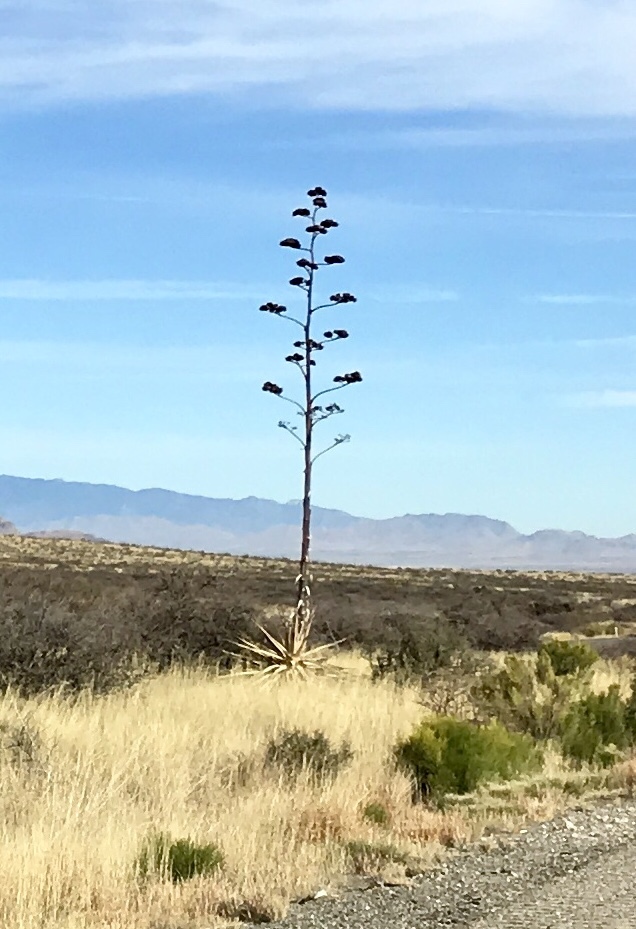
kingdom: Plantae
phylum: Tracheophyta
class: Liliopsida
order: Asparagales
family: Asparagaceae
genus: Agave
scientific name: Agave palmeri
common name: Palmer agave
